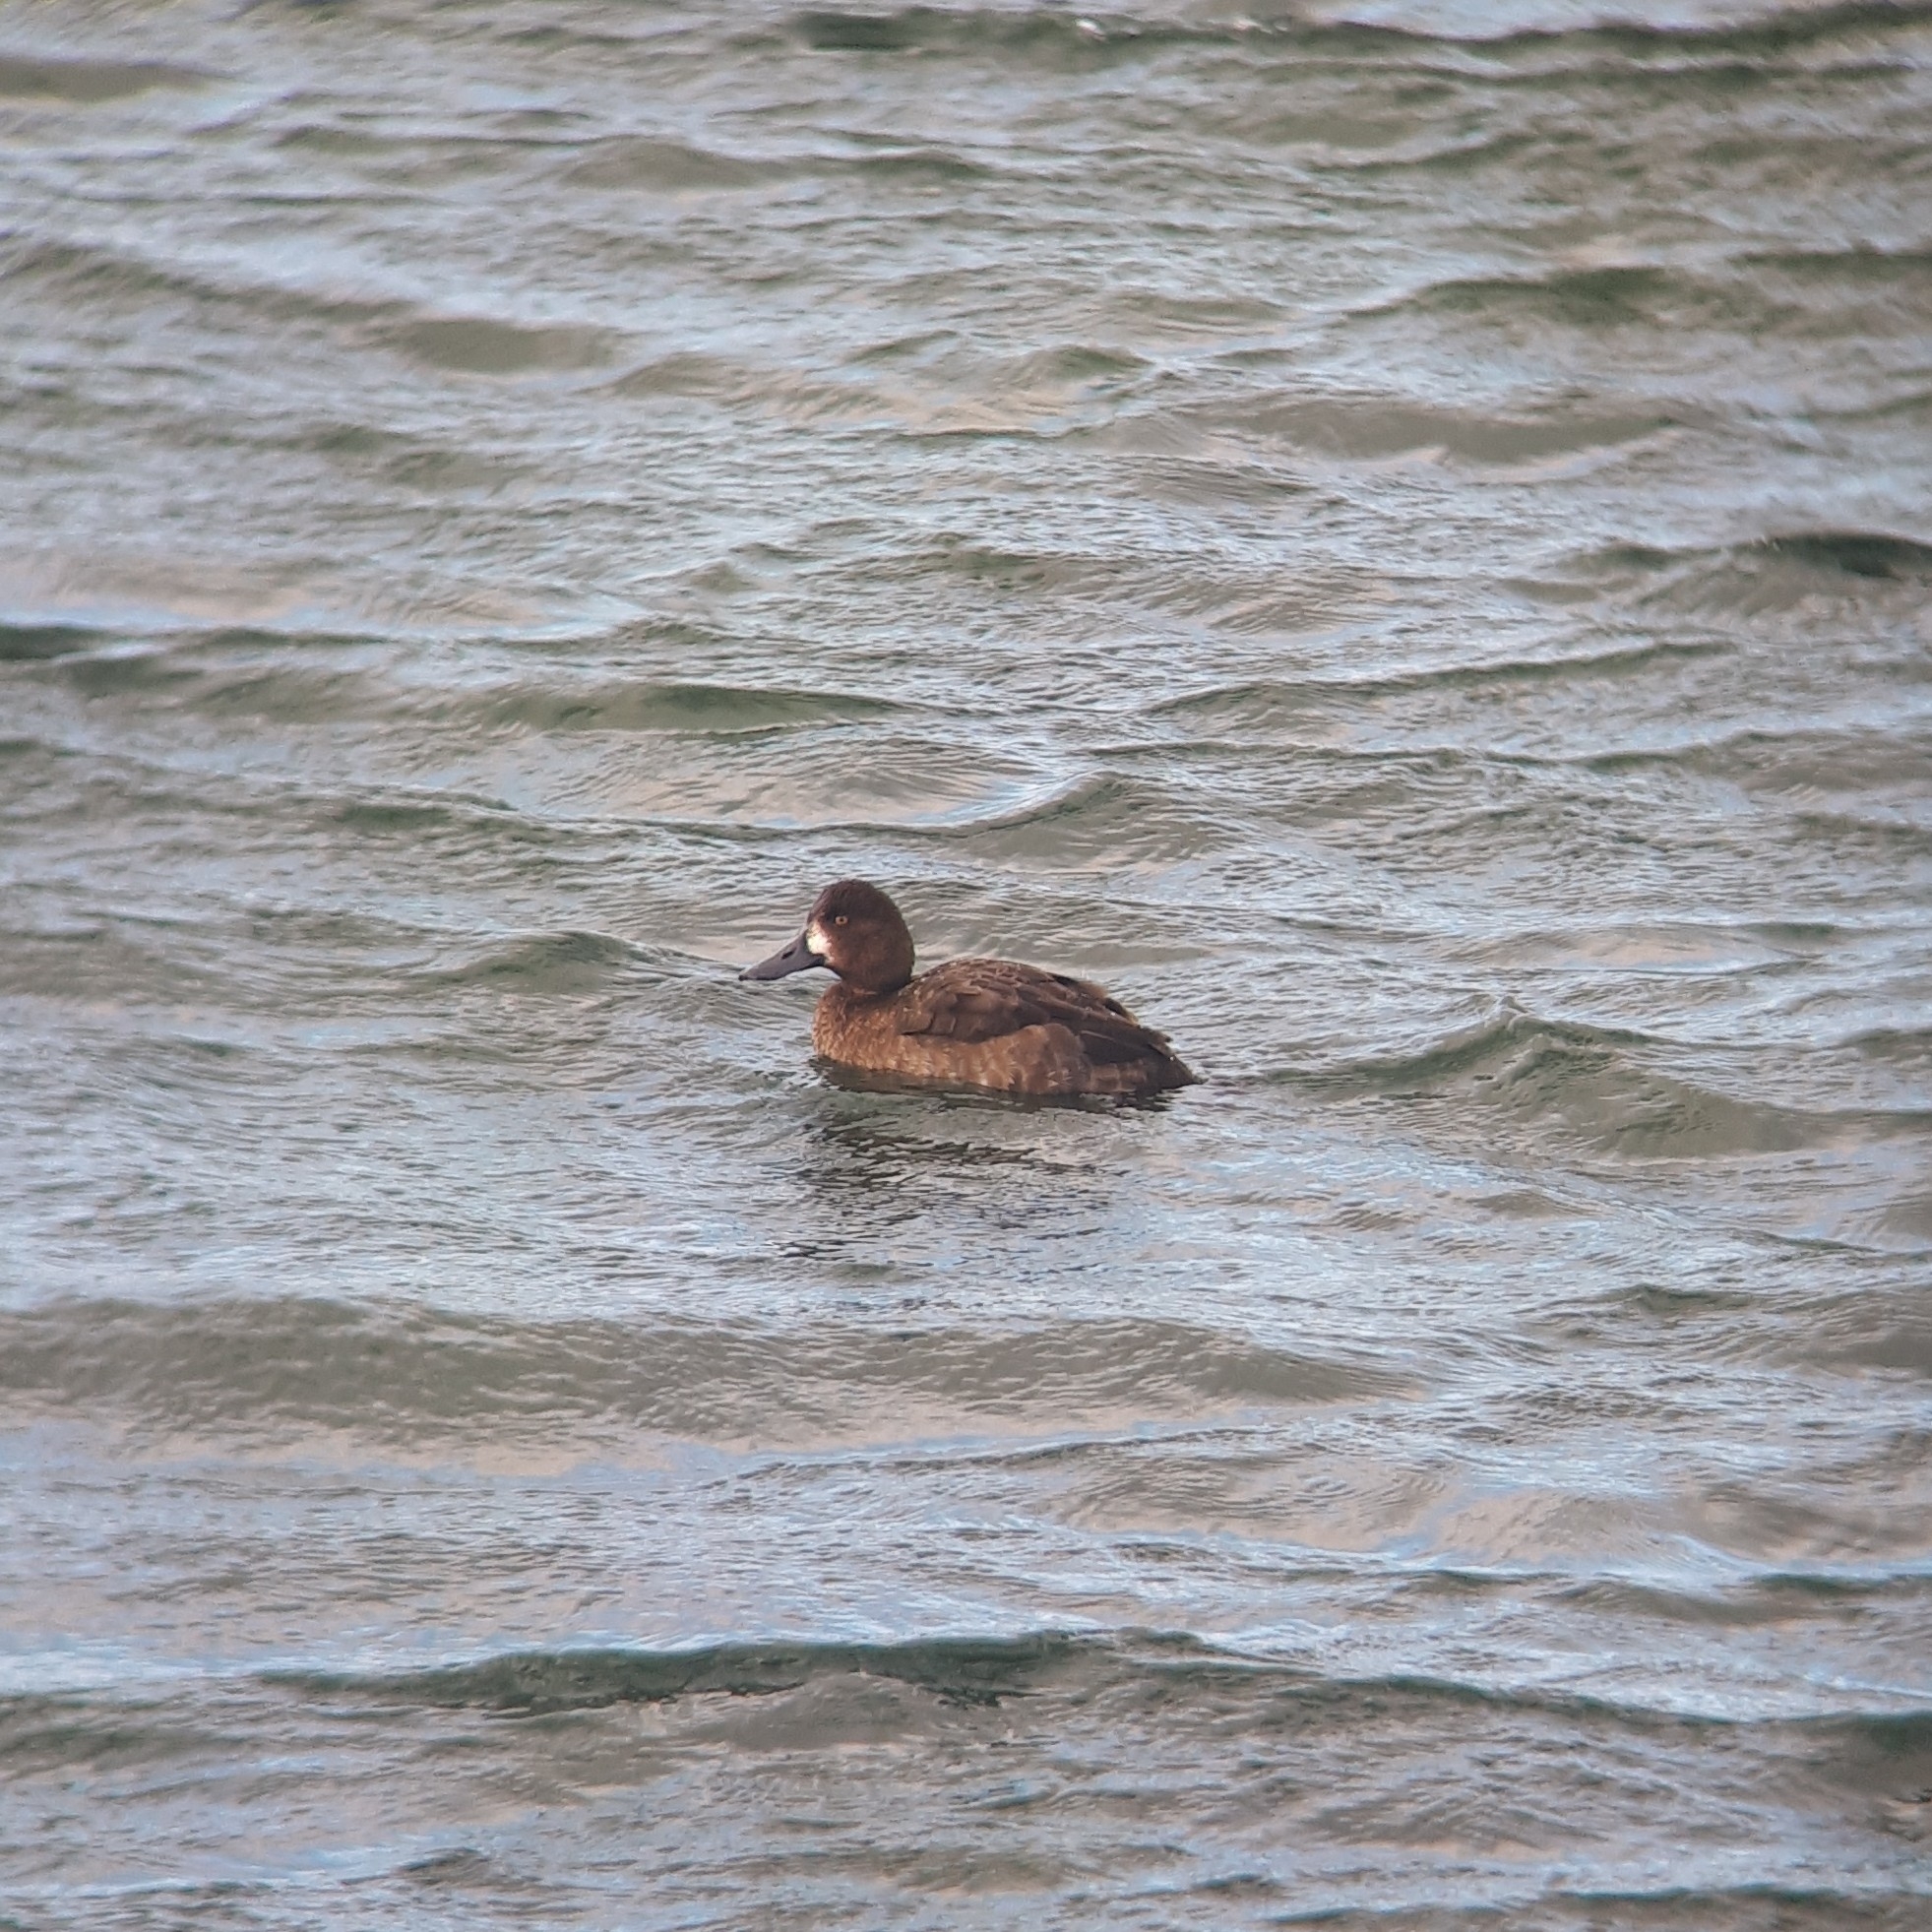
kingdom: Animalia
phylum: Chordata
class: Aves
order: Anseriformes
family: Anatidae
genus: Aythya
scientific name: Aythya marila
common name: Greater scaup
